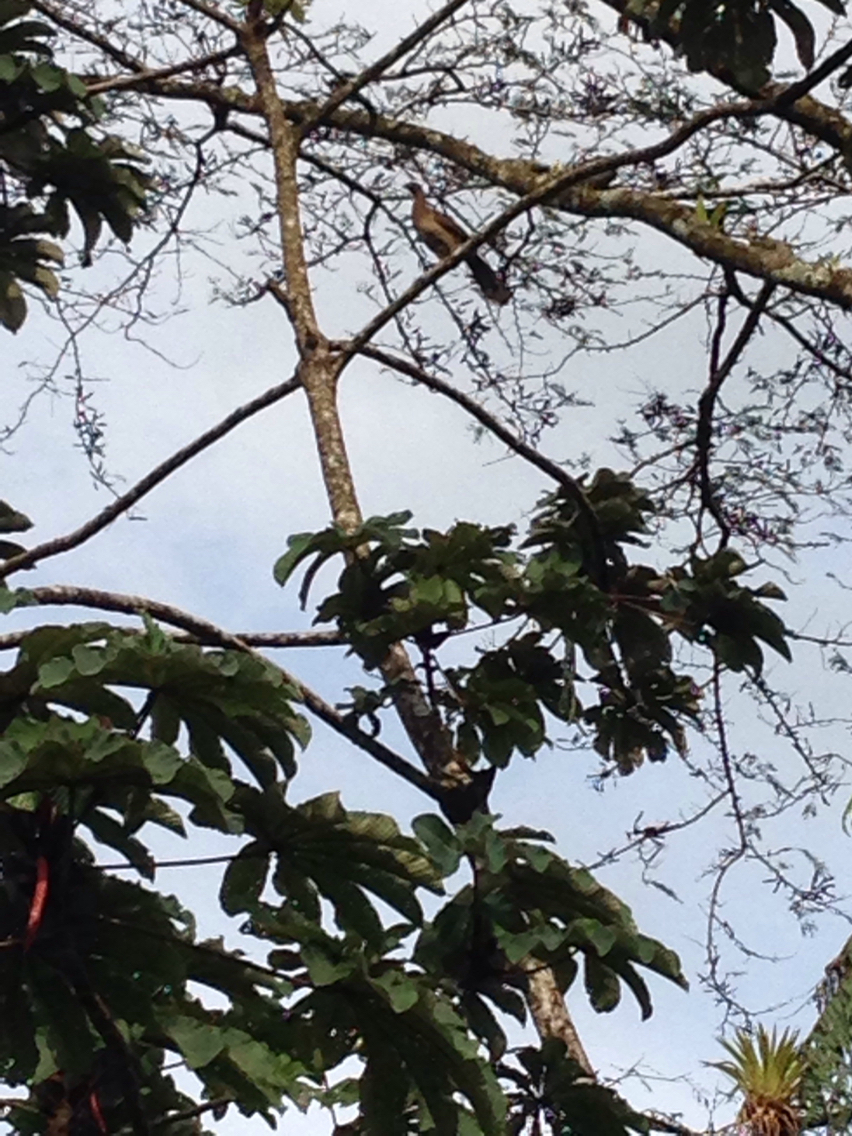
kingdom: Animalia
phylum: Chordata
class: Aves
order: Galliformes
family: Cracidae
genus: Ortalis
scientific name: Ortalis cinereiceps
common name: Grey-headed chachalaca
